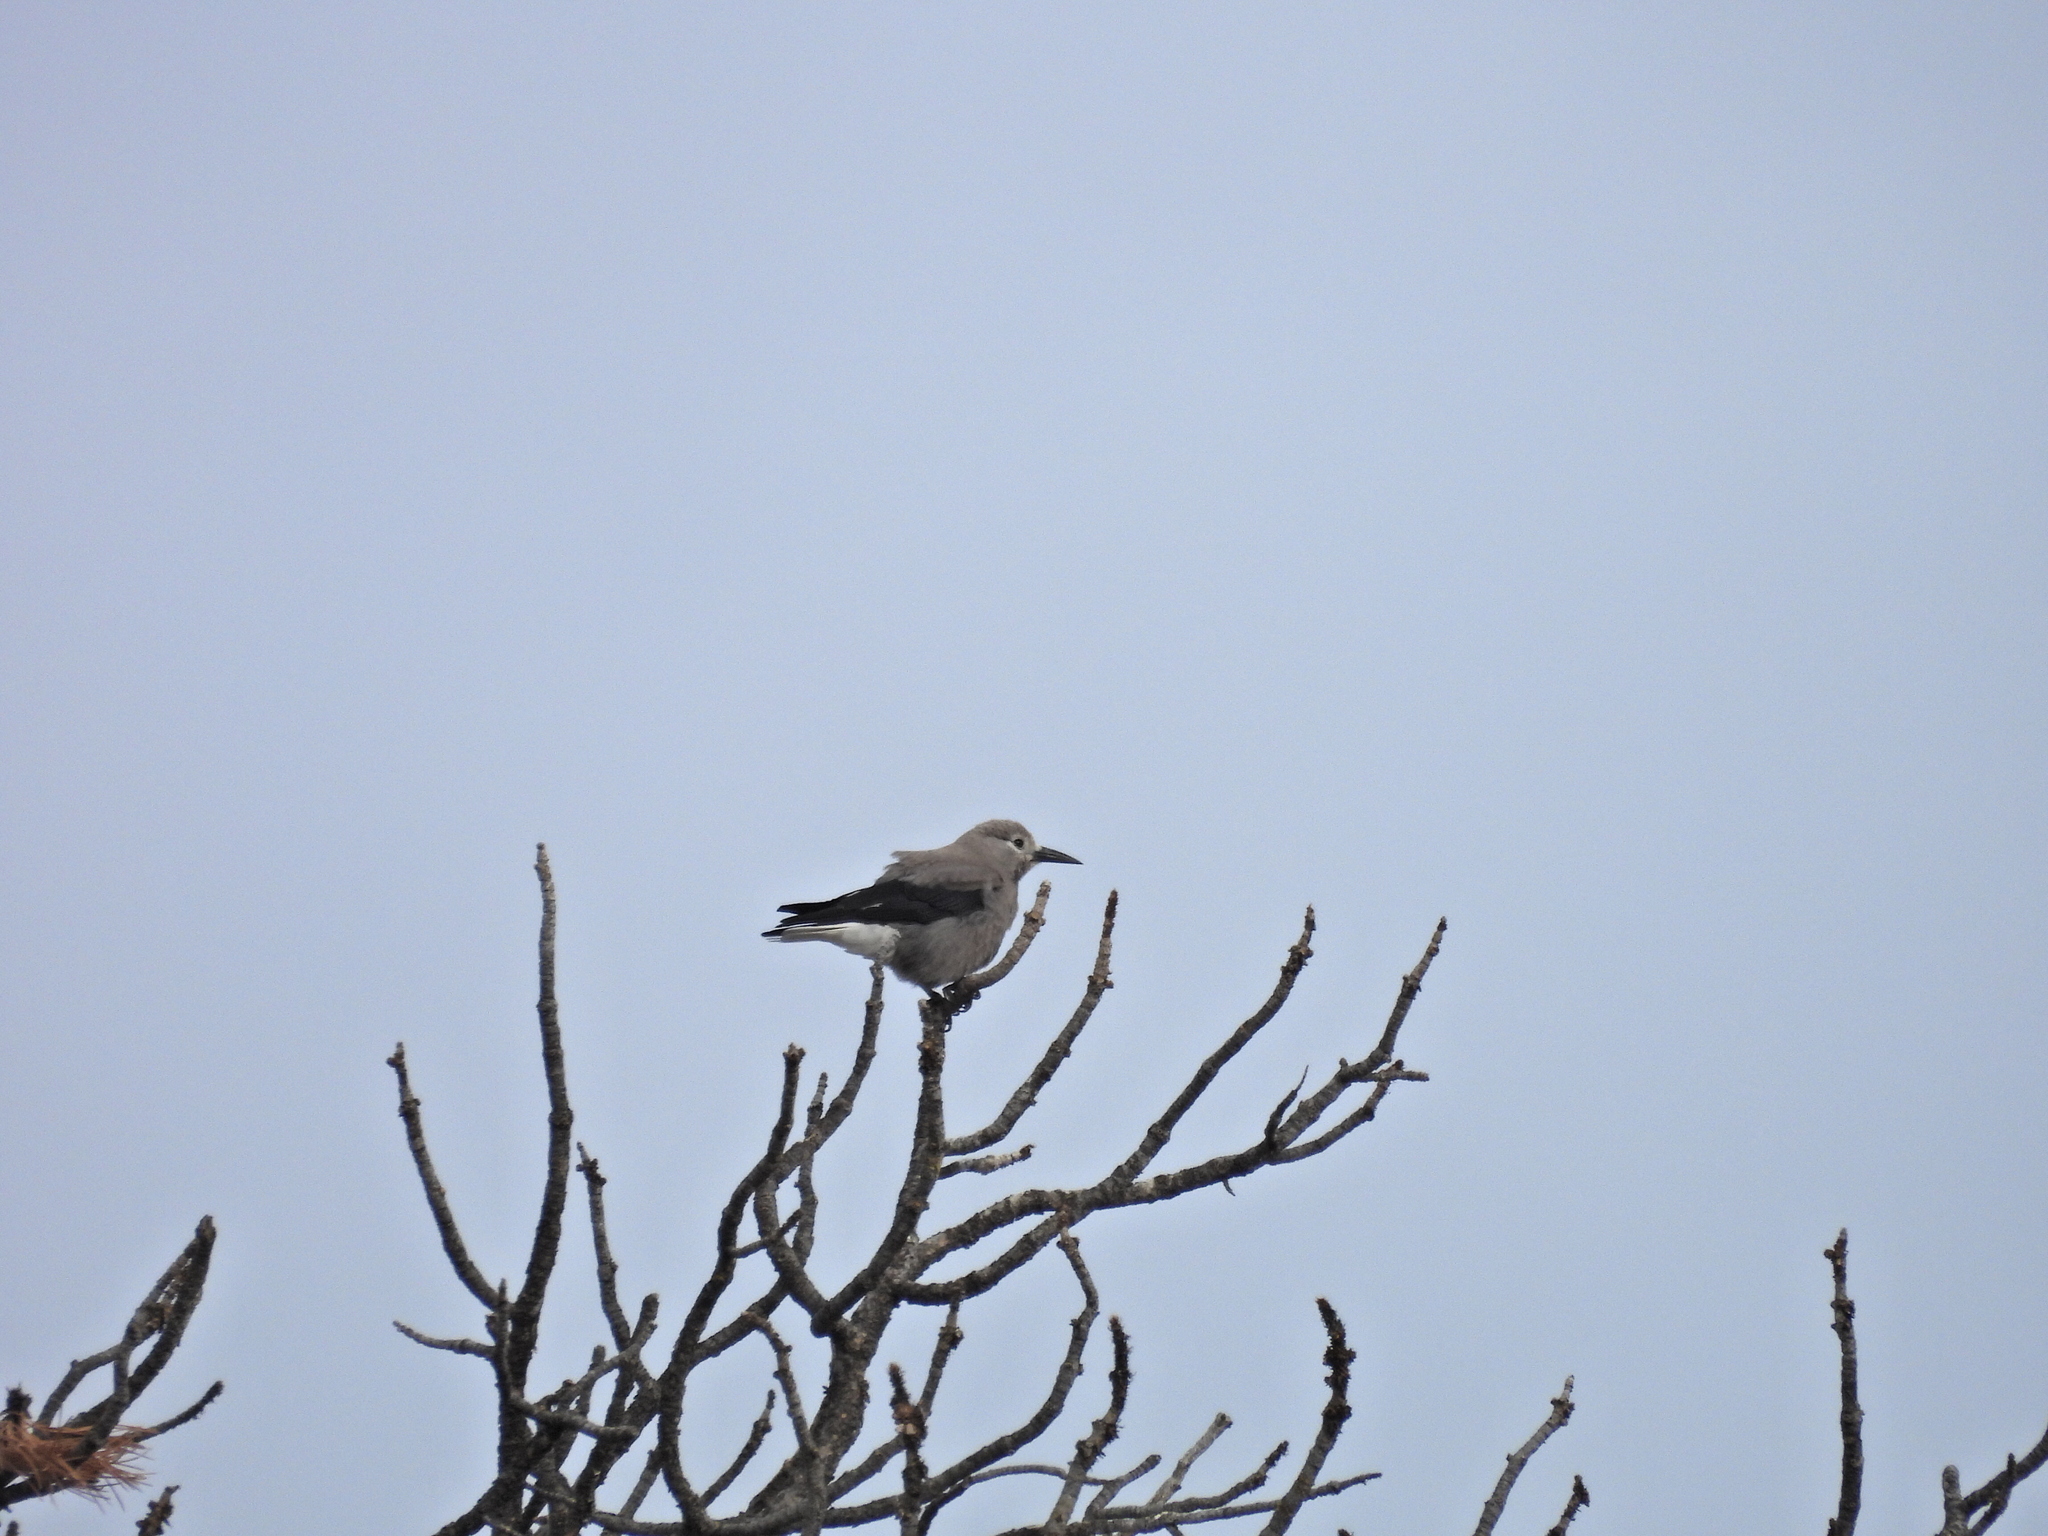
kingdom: Animalia
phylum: Chordata
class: Aves
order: Passeriformes
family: Corvidae
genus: Nucifraga
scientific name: Nucifraga columbiana
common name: Clark's nutcracker
